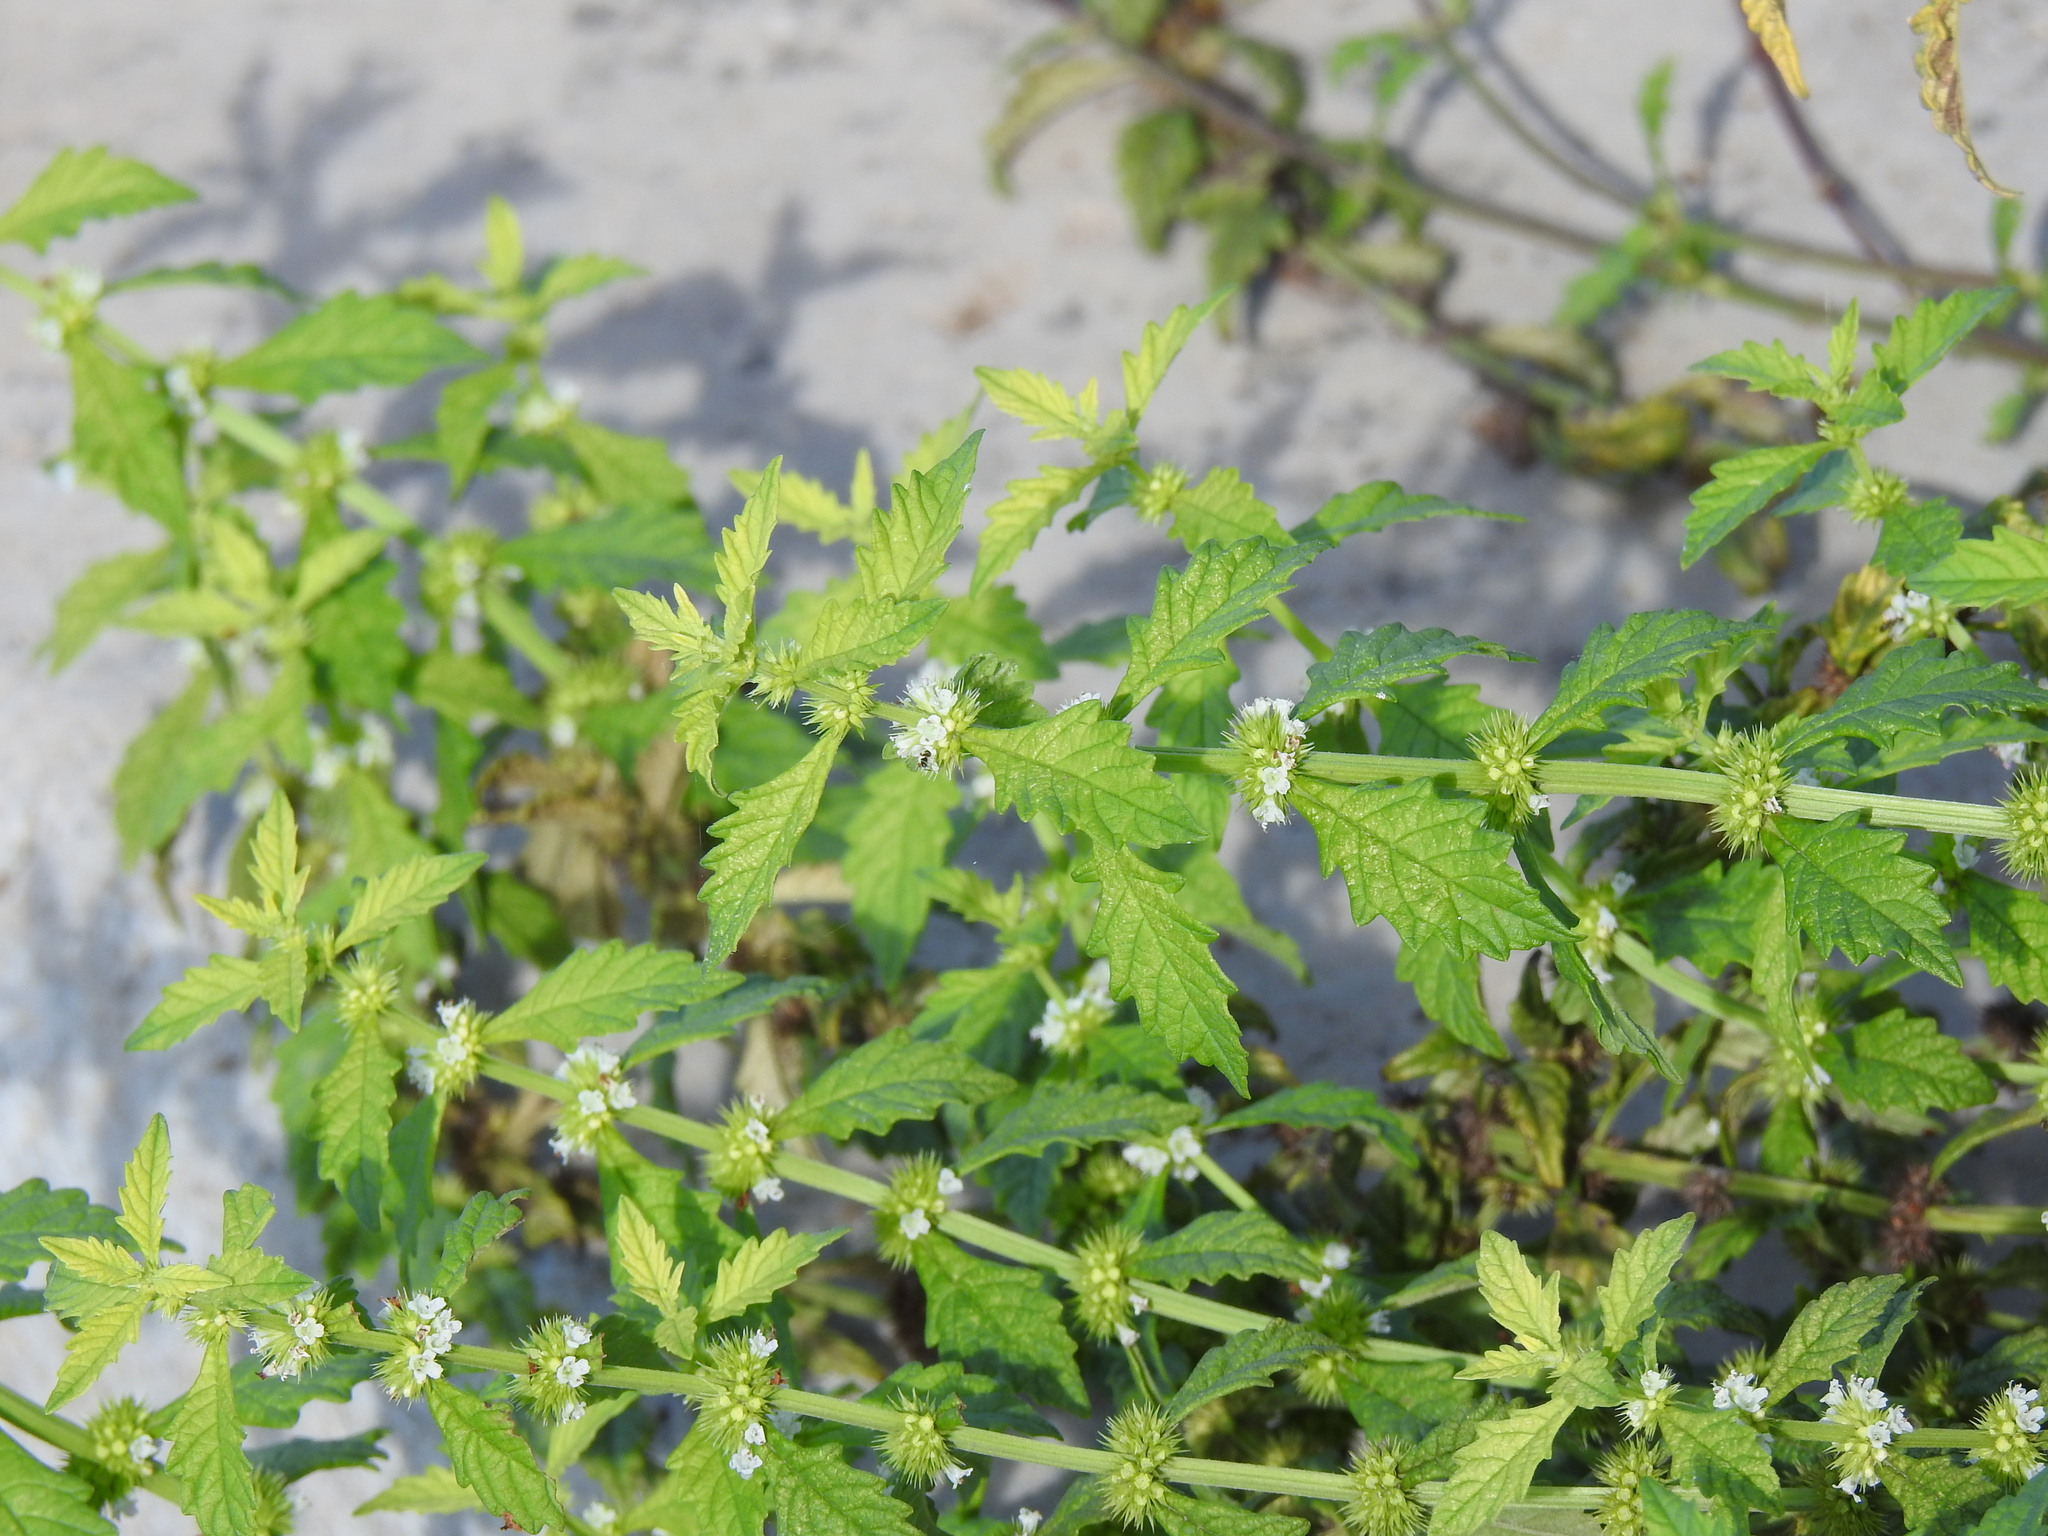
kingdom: Plantae
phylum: Tracheophyta
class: Magnoliopsida
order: Lamiales
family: Lamiaceae
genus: Lycopus
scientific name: Lycopus europaeus
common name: European bugleweed
